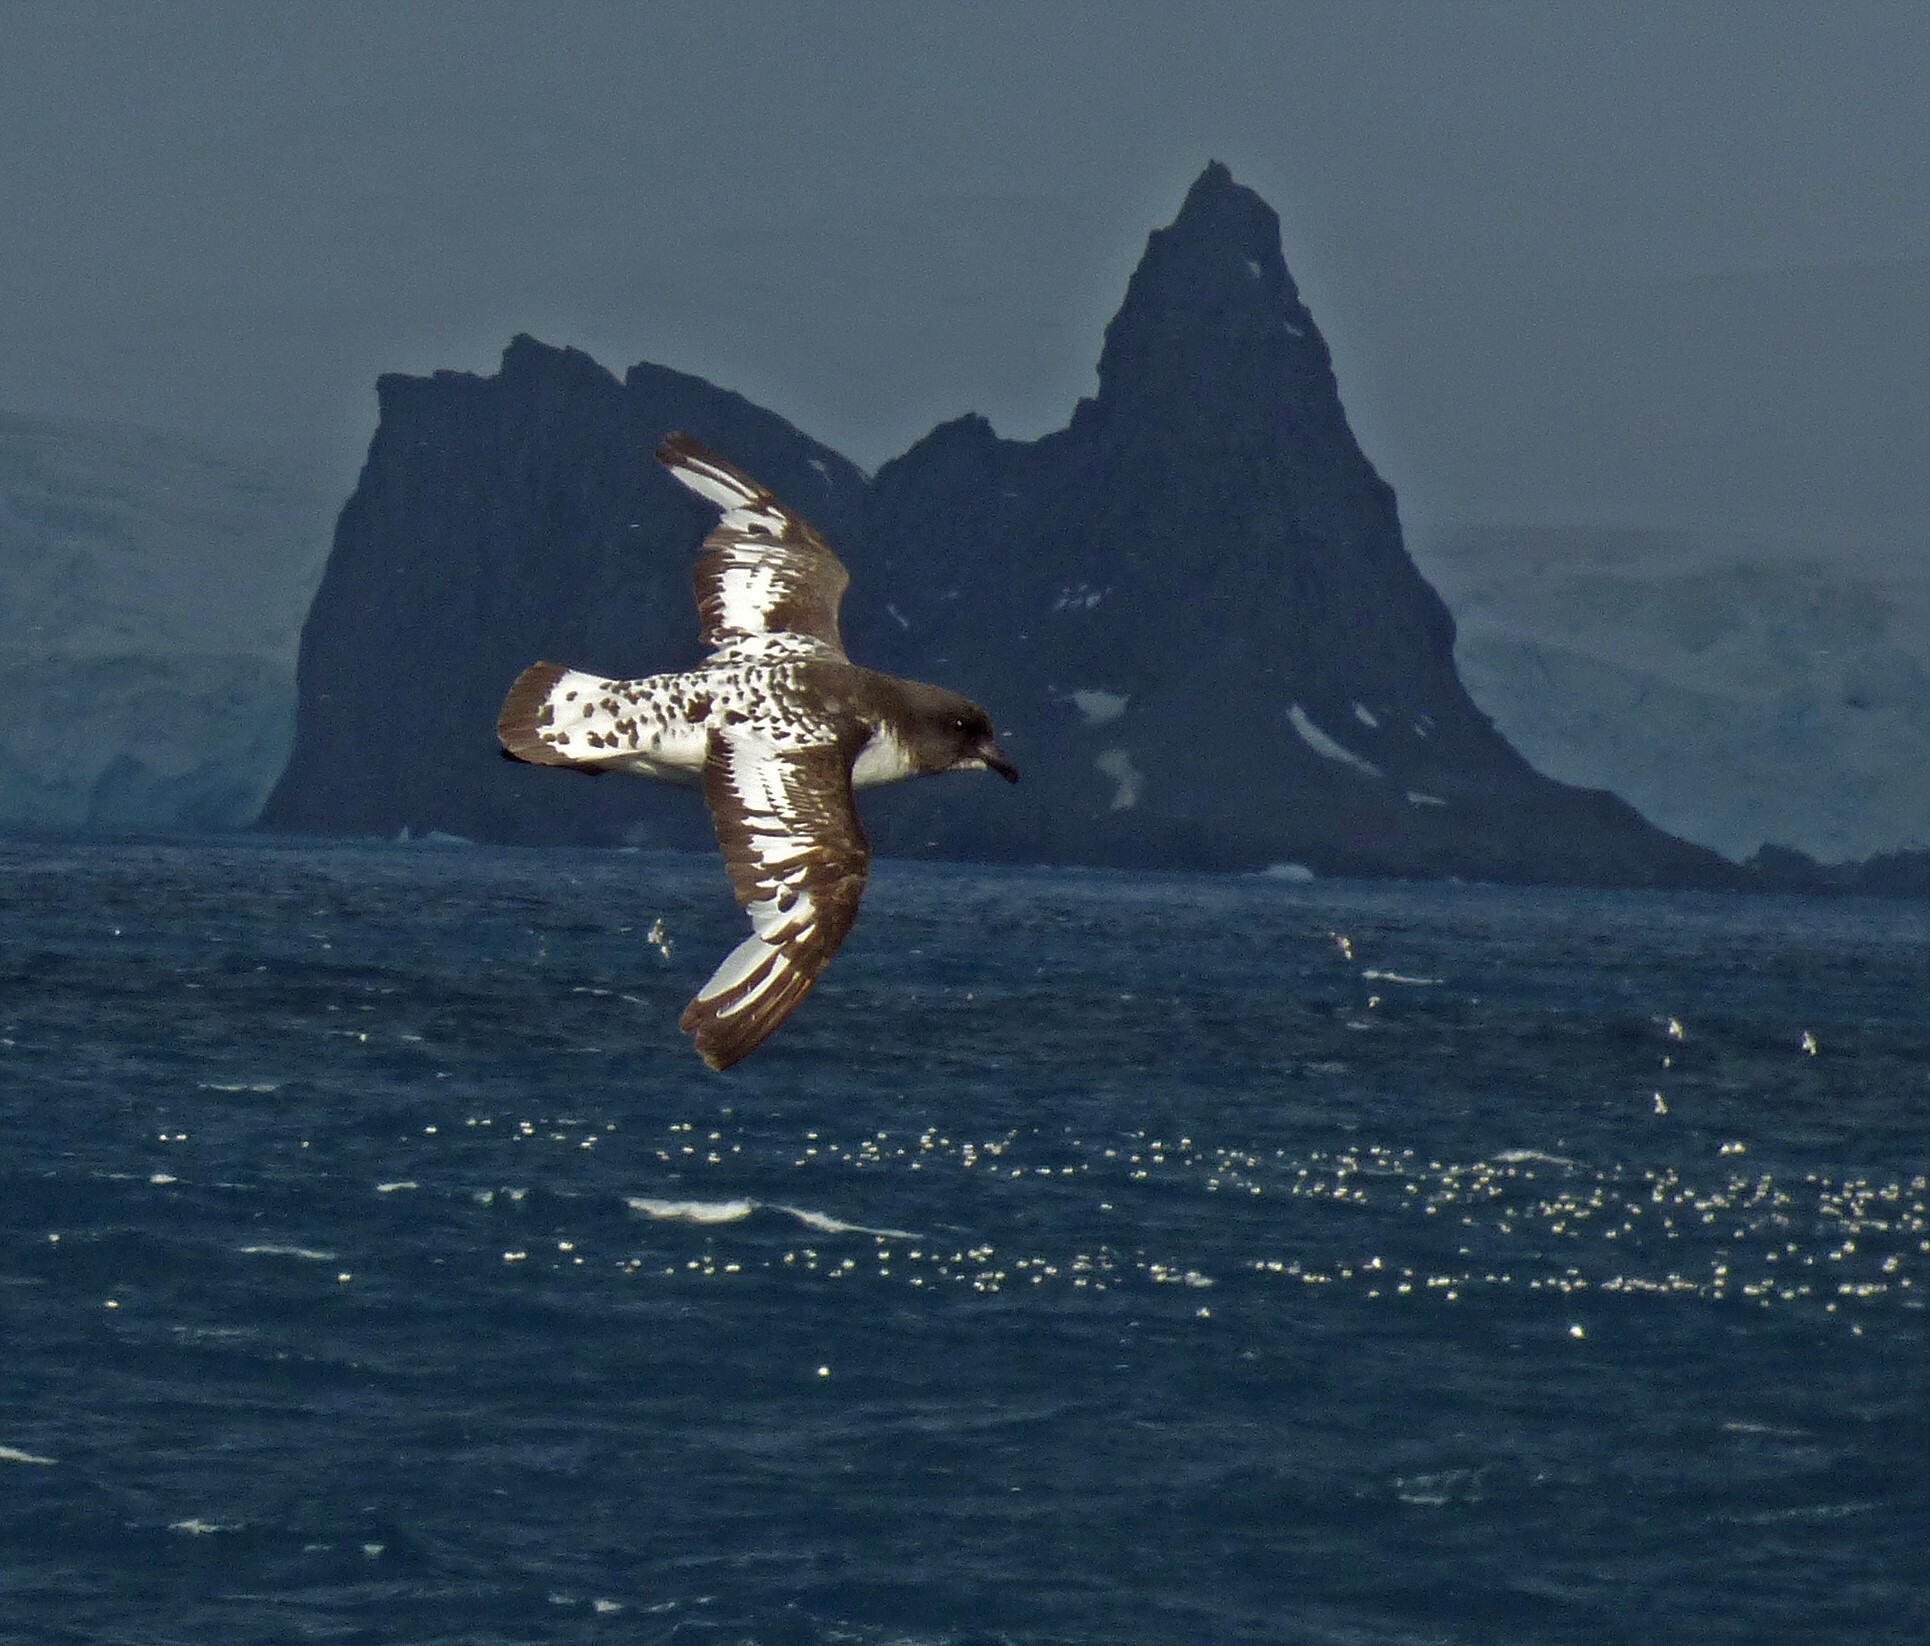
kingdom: Animalia
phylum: Chordata
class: Aves
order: Procellariiformes
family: Procellariidae
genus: Daption
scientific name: Daption capense
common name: Cape petrel
